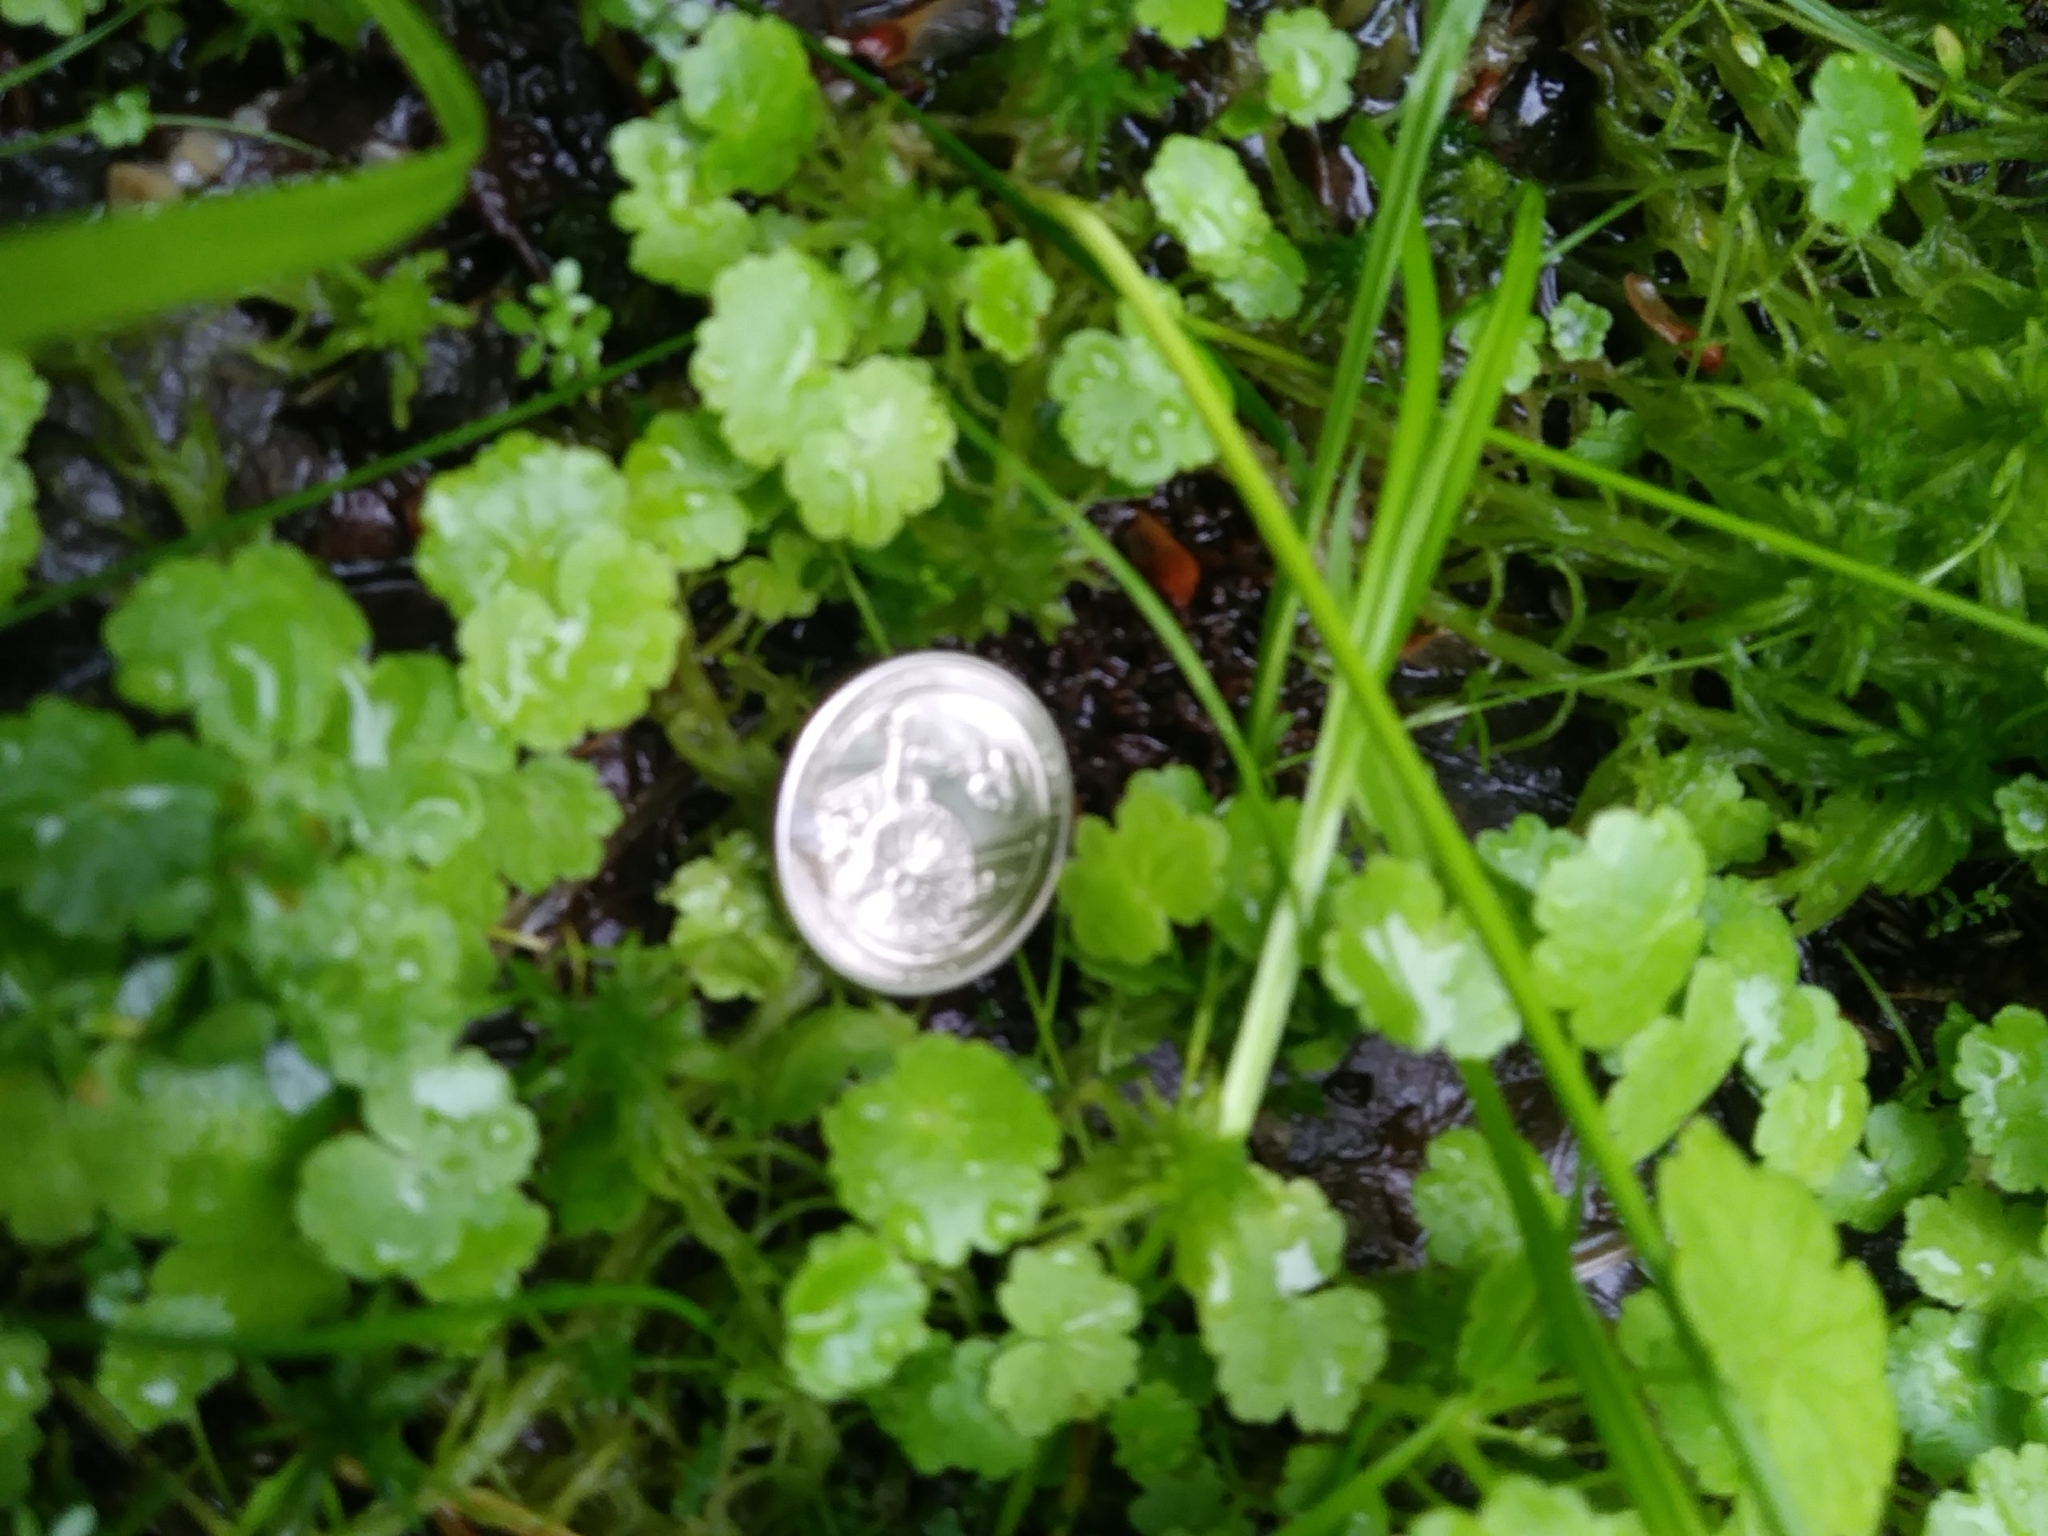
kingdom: Plantae
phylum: Tracheophyta
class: Magnoliopsida
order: Apiales
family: Araliaceae
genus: Hydrocotyle
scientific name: Hydrocotyle sibthorpioides
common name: Lawn marshpennywort
